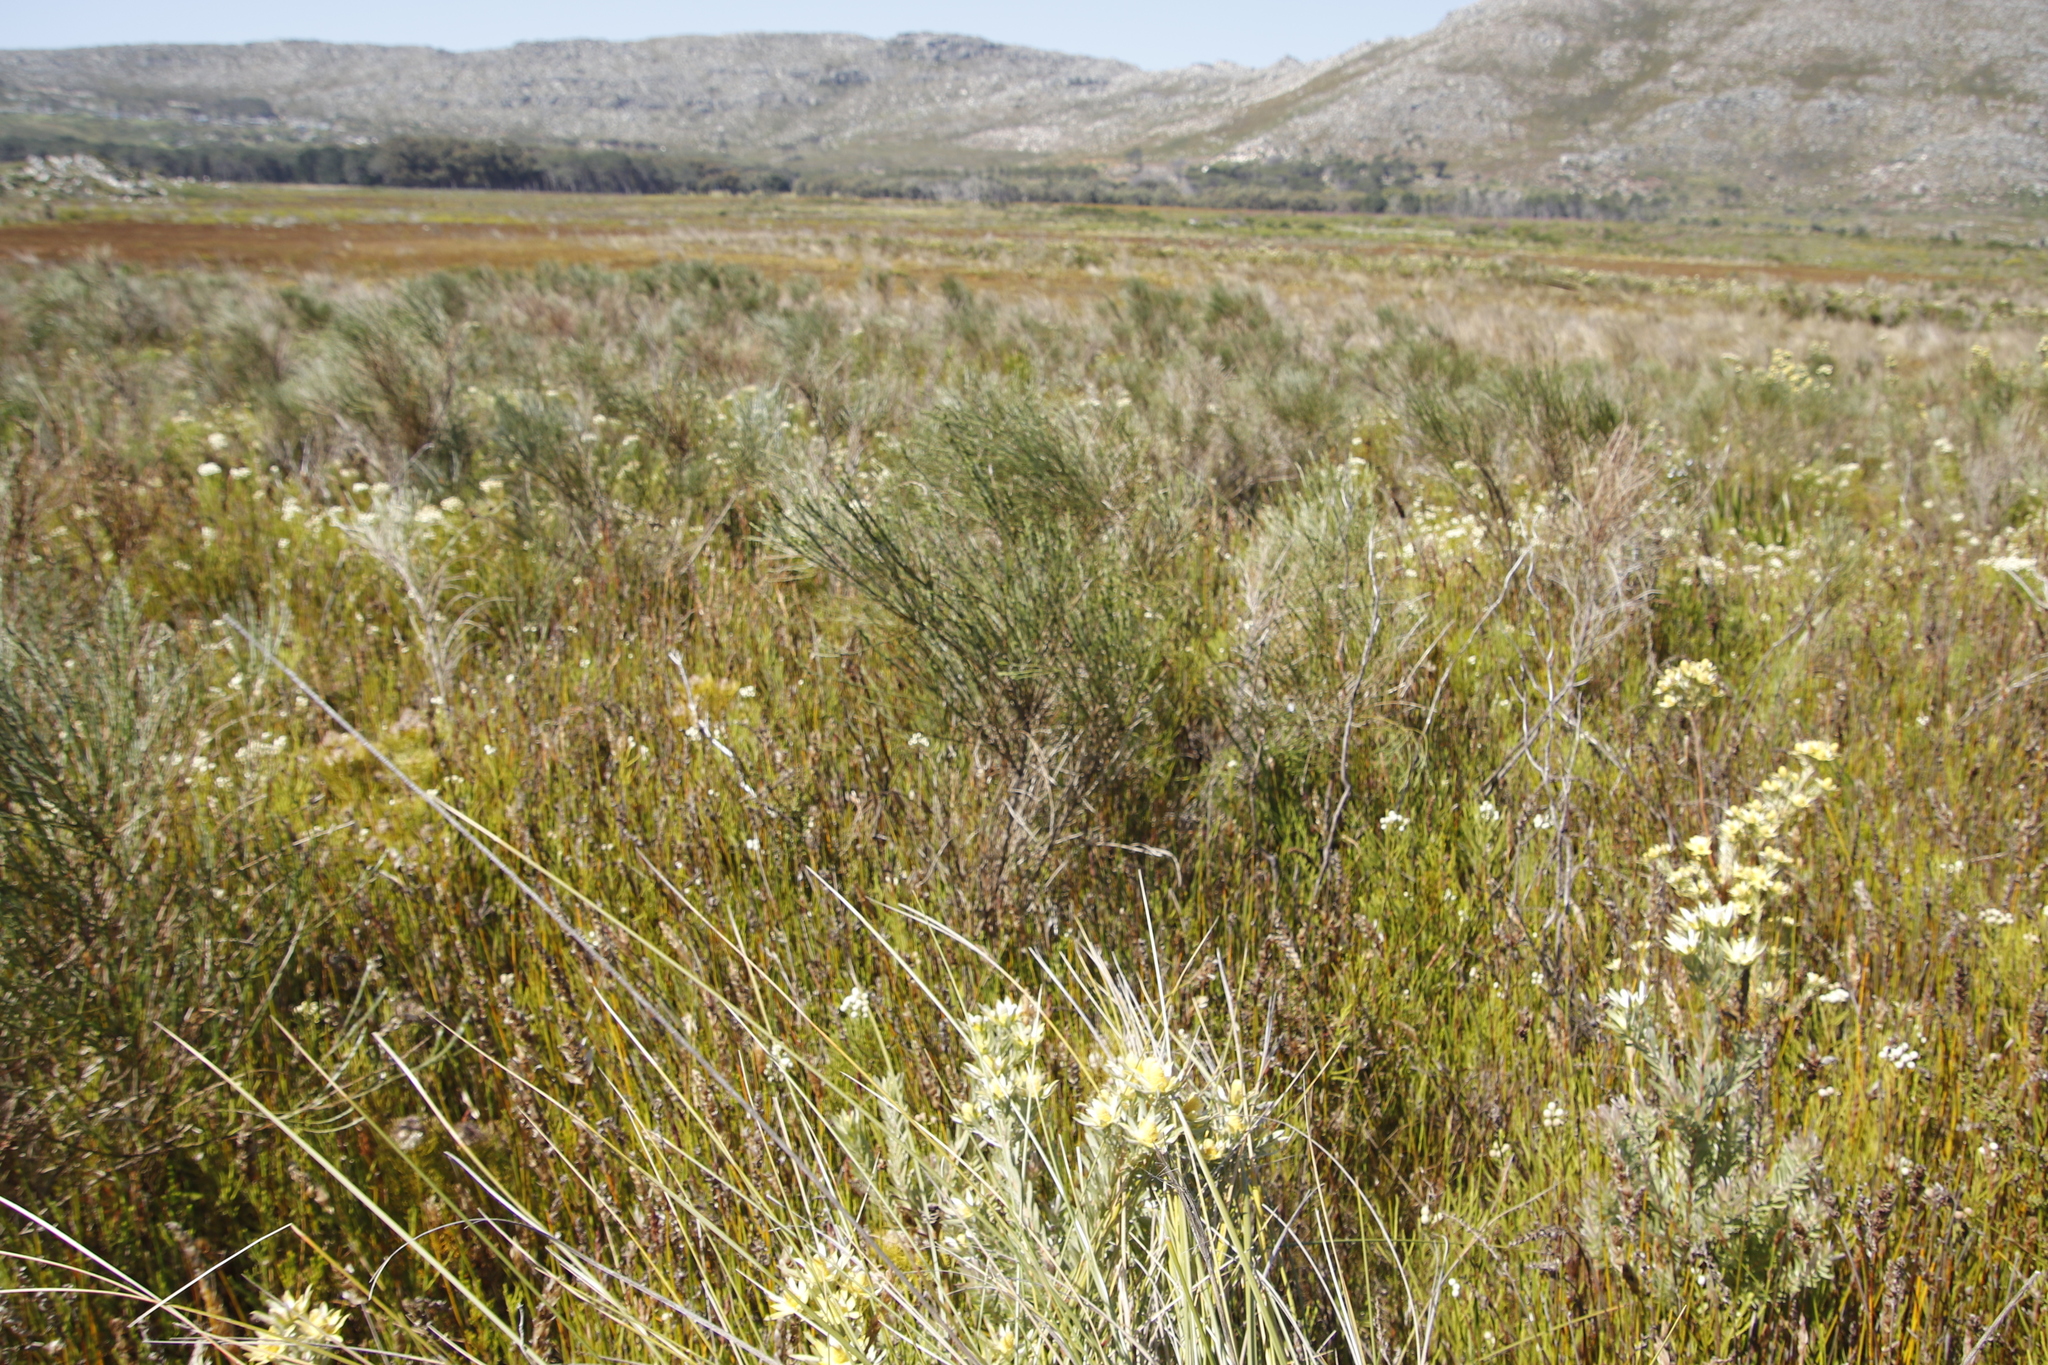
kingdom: Plantae
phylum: Tracheophyta
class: Magnoliopsida
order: Fabales
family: Fabaceae
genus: Psoralea
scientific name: Psoralea aphylla
